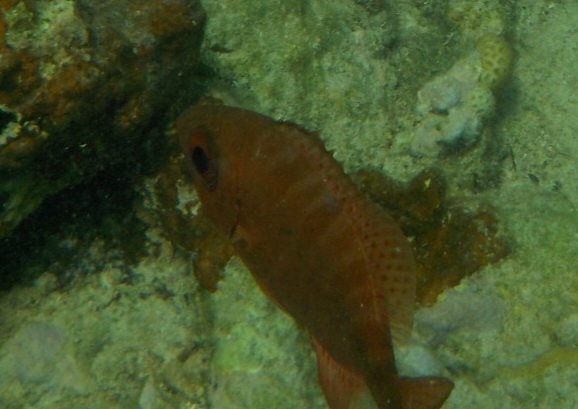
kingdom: Animalia
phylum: Chordata
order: Perciformes
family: Priacanthidae
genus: Heteropriacanthus
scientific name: Heteropriacanthus cruentatus
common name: Glasseye
